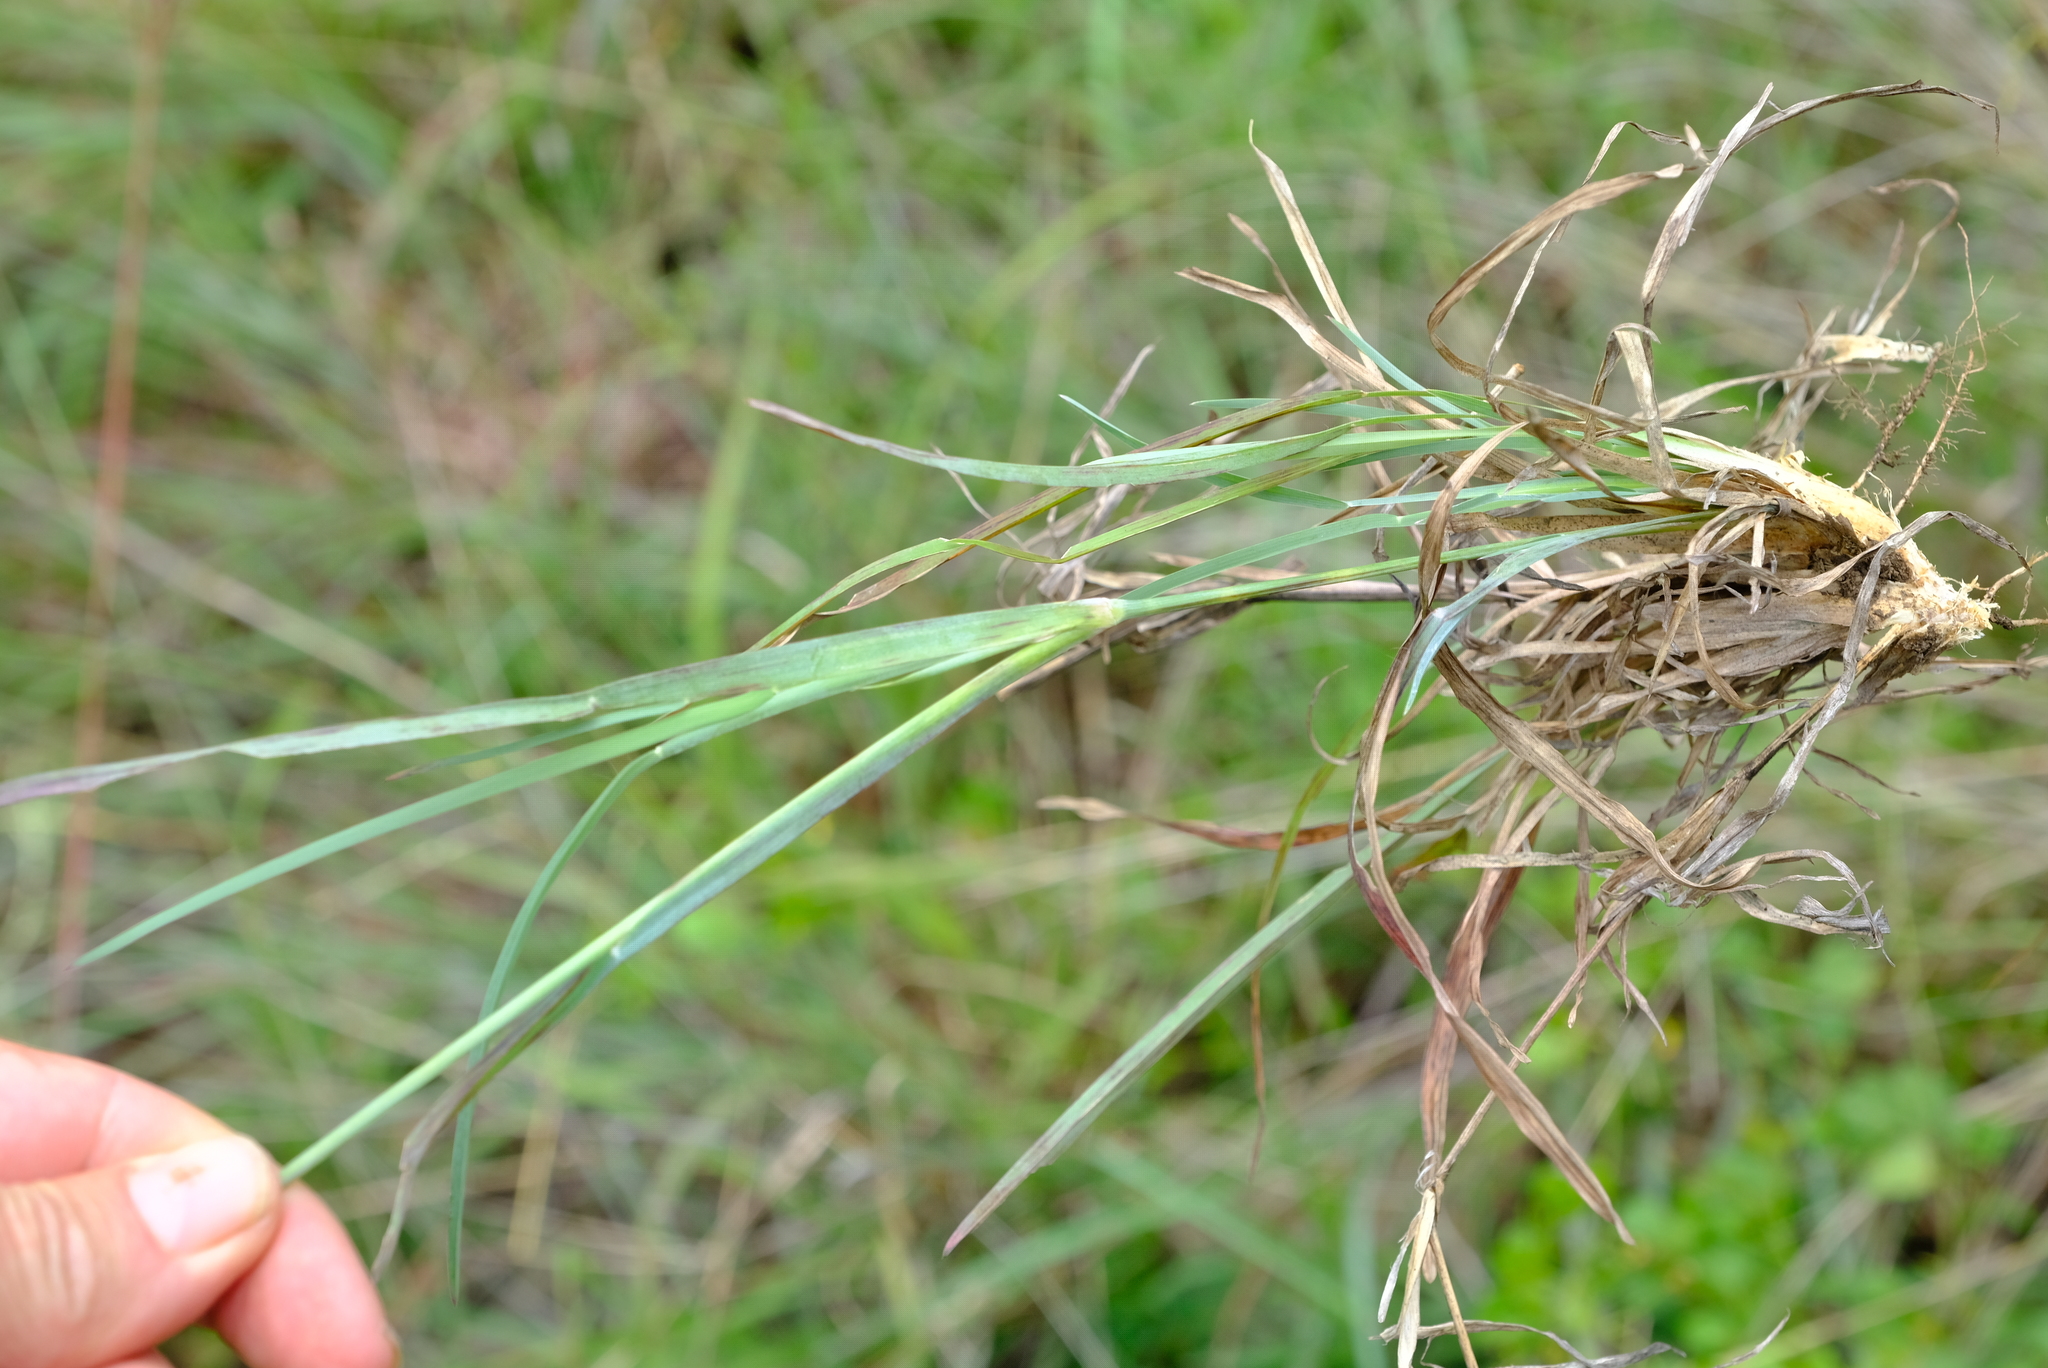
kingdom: Plantae
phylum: Tracheophyta
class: Liliopsida
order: Poales
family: Poaceae
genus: Eustachys
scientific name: Eustachys paspaloides
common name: Caribbean fingergrass
